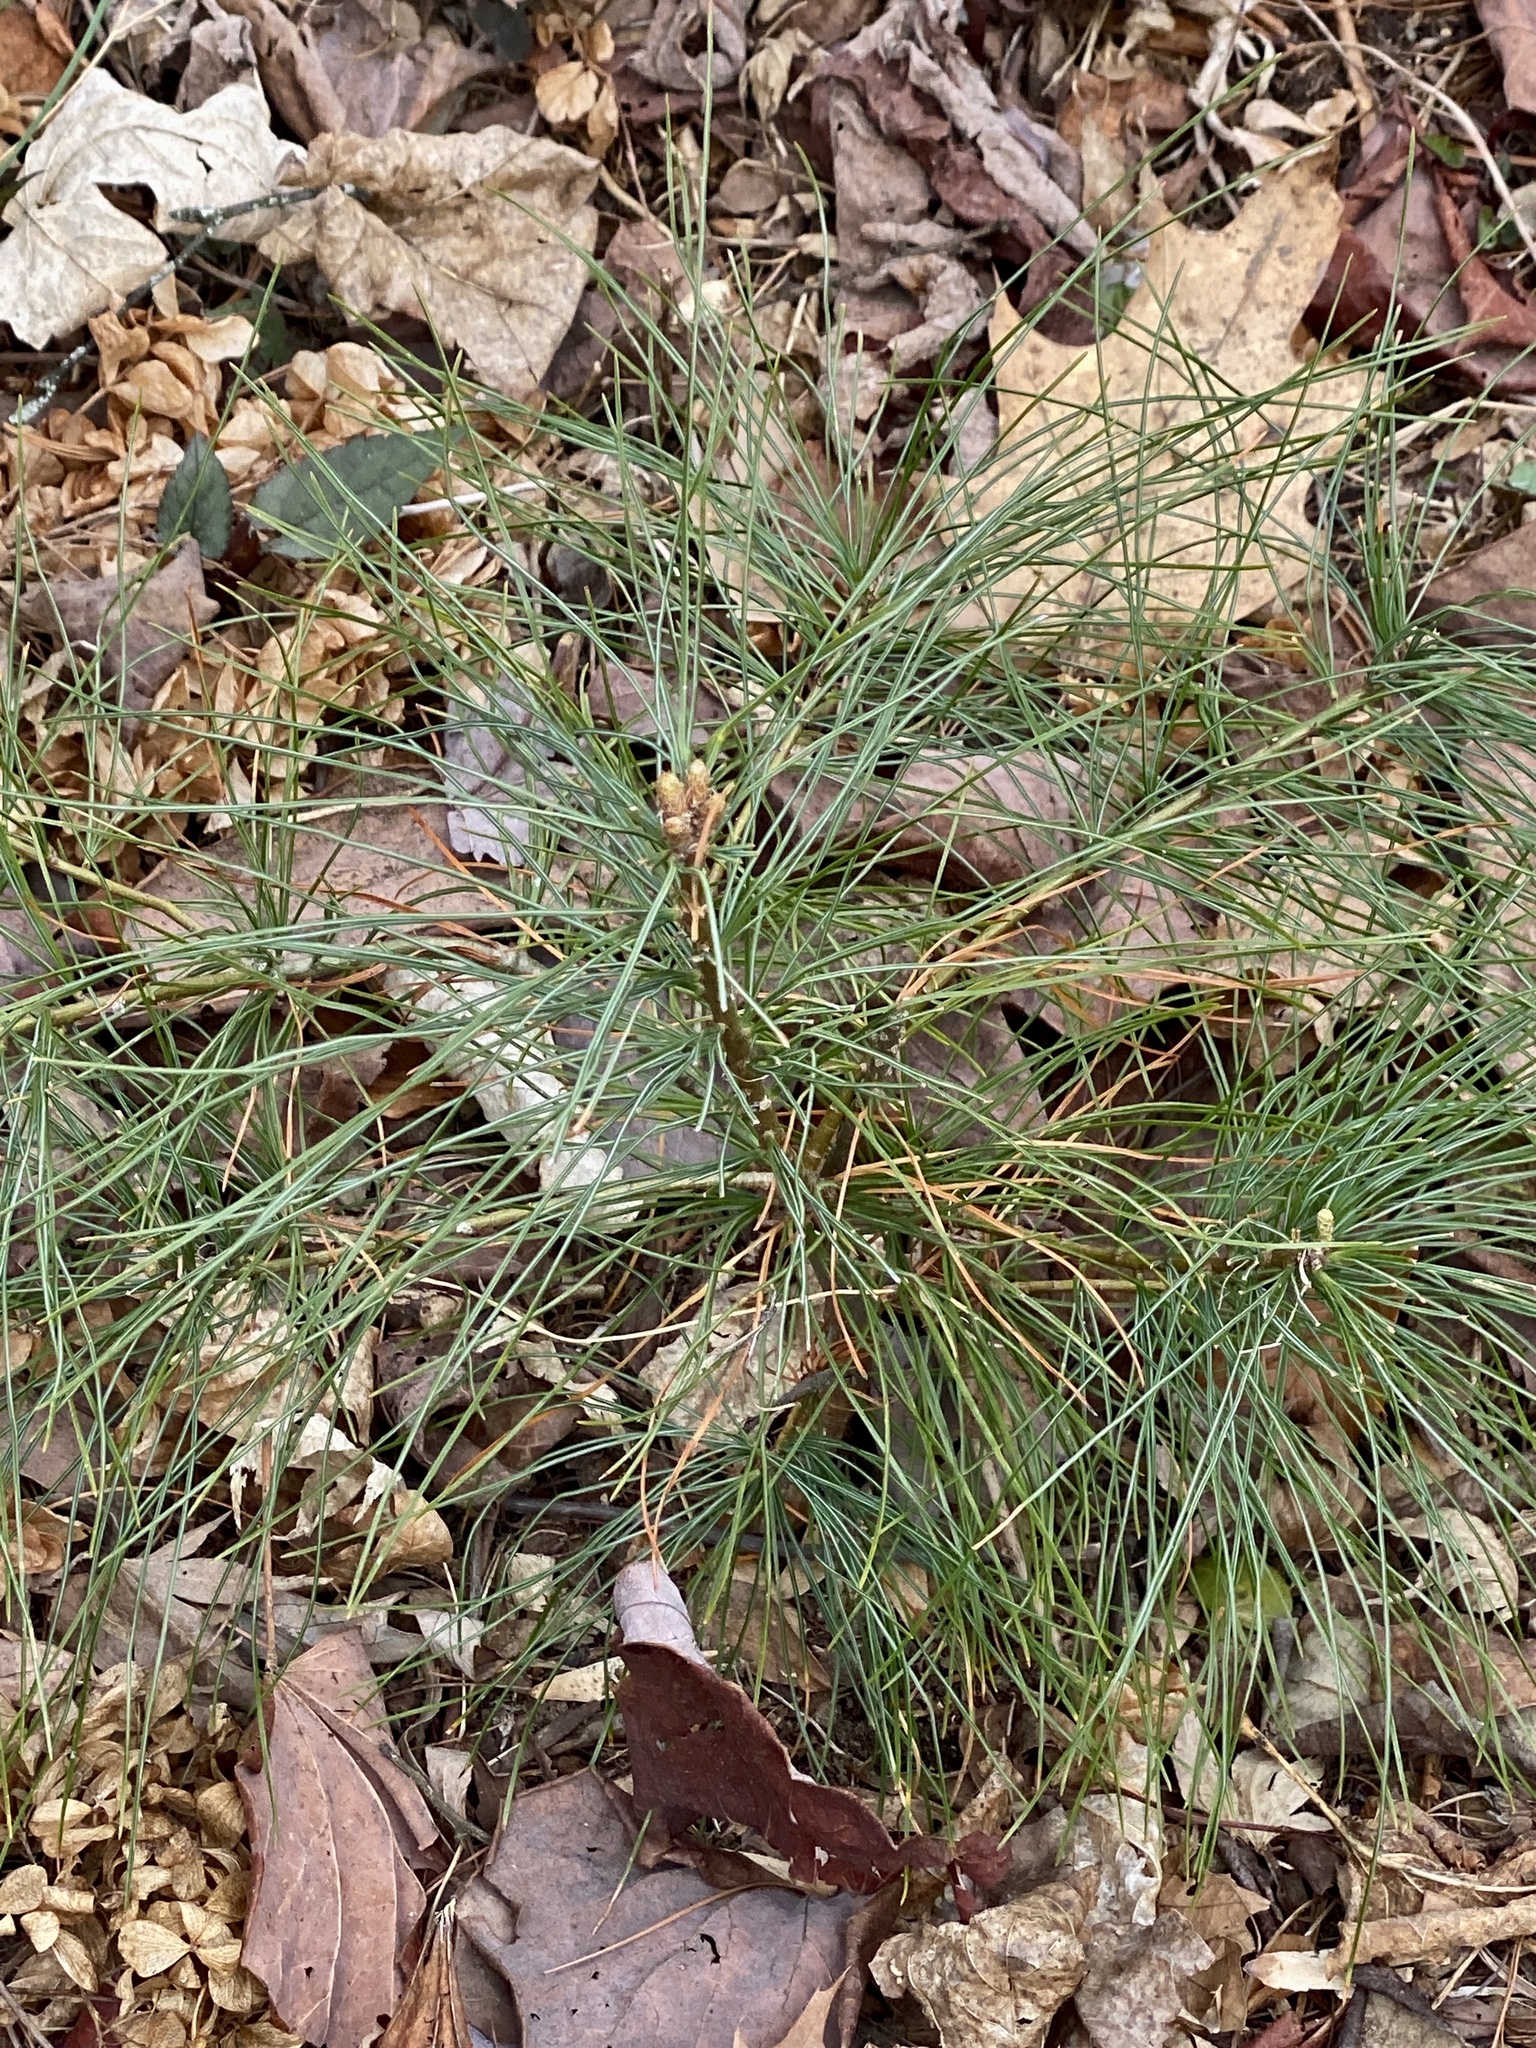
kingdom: Plantae
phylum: Tracheophyta
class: Pinopsida
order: Pinales
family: Pinaceae
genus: Pinus
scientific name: Pinus strobus
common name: Weymouth pine
